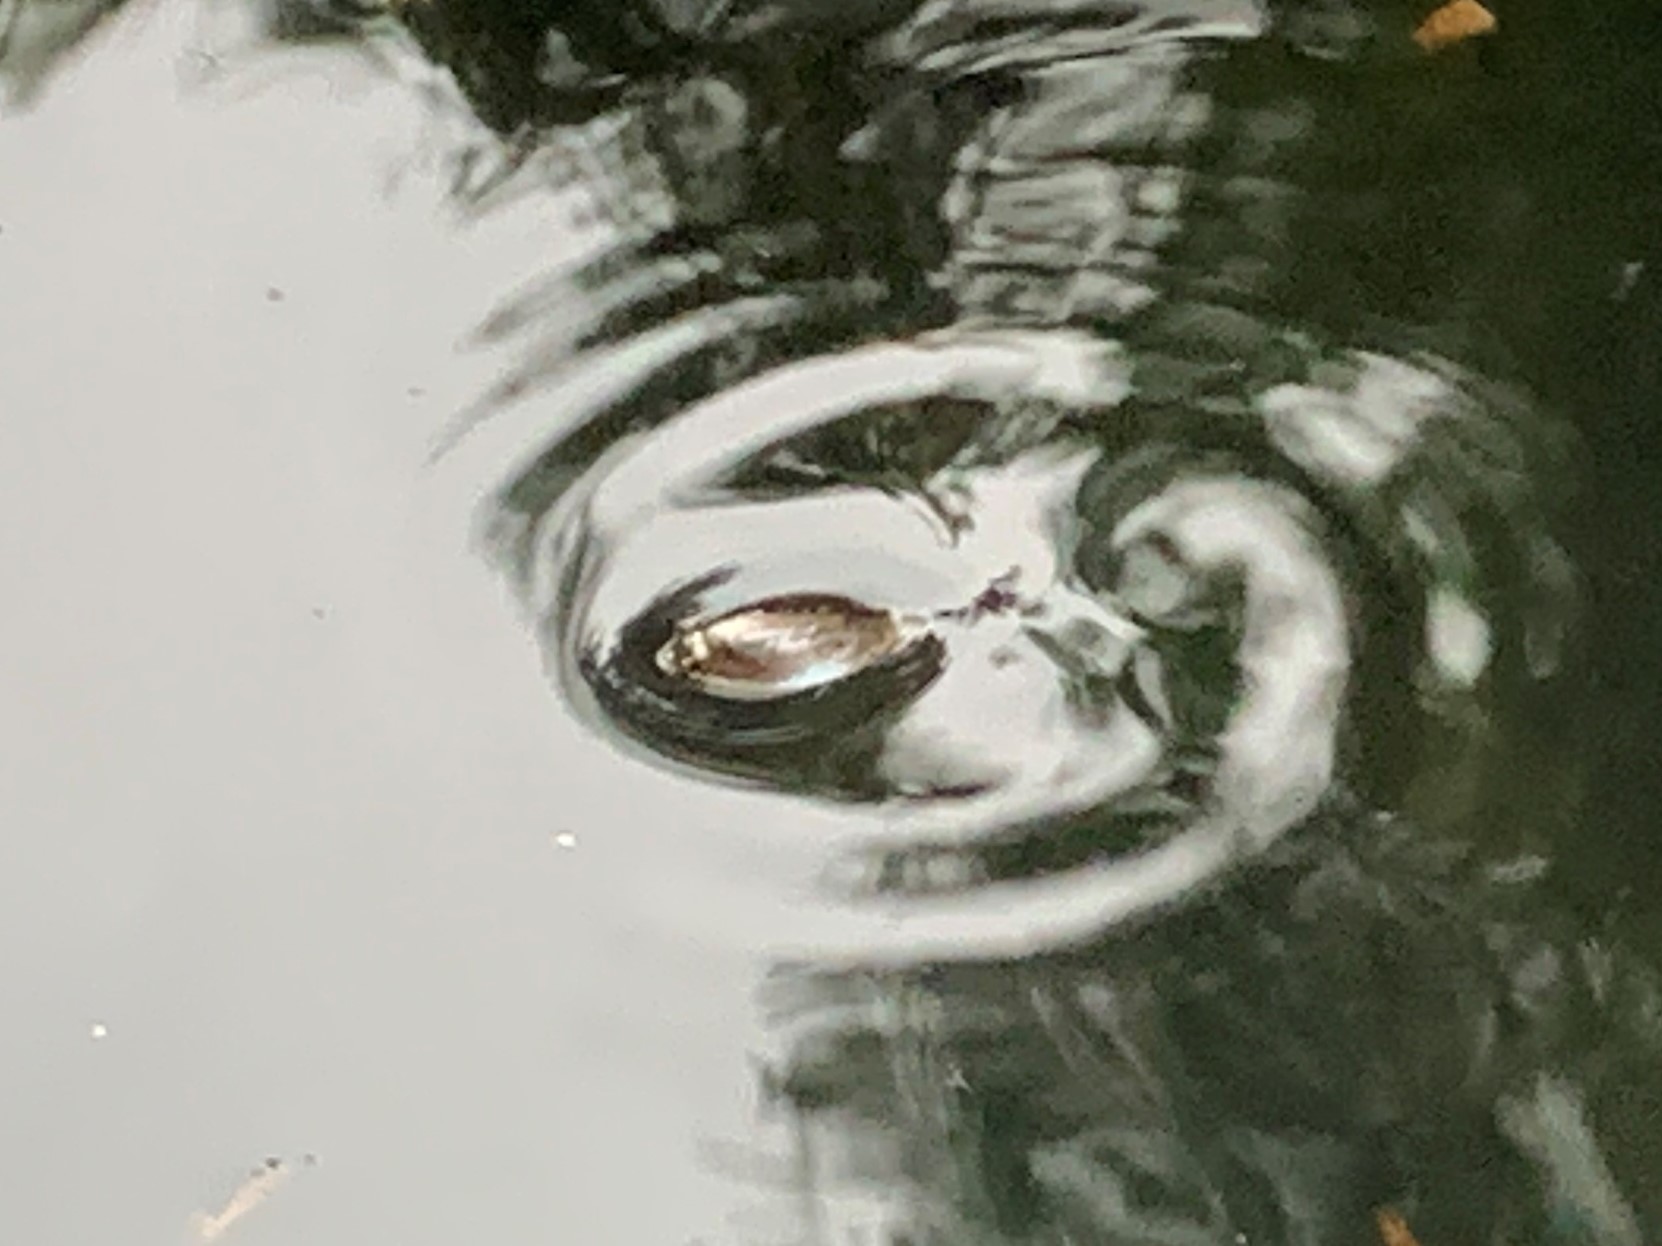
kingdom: Animalia
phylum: Arthropoda
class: Insecta
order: Coleoptera
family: Gyrinidae
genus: Dineutus
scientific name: Dineutus
